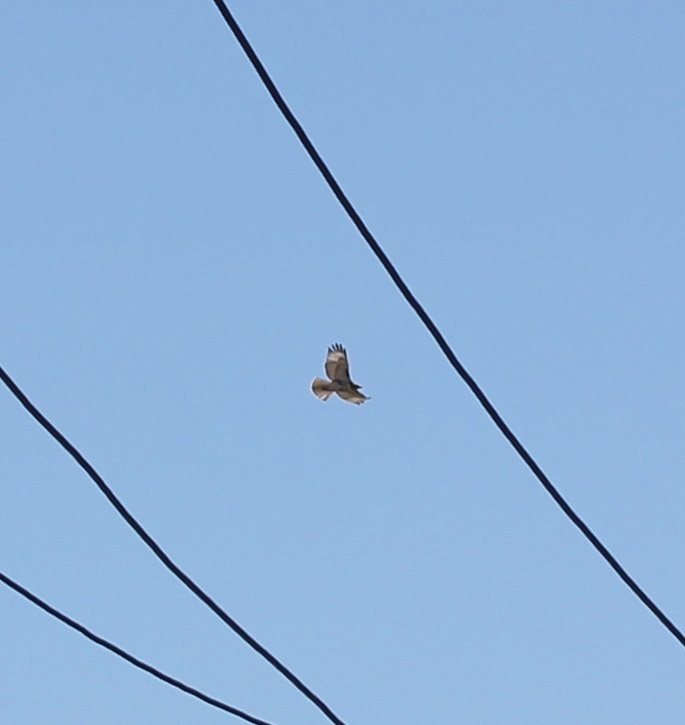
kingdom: Animalia
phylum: Chordata
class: Aves
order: Accipitriformes
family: Accipitridae
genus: Buteo
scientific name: Buteo jamaicensis
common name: Red-tailed hawk
